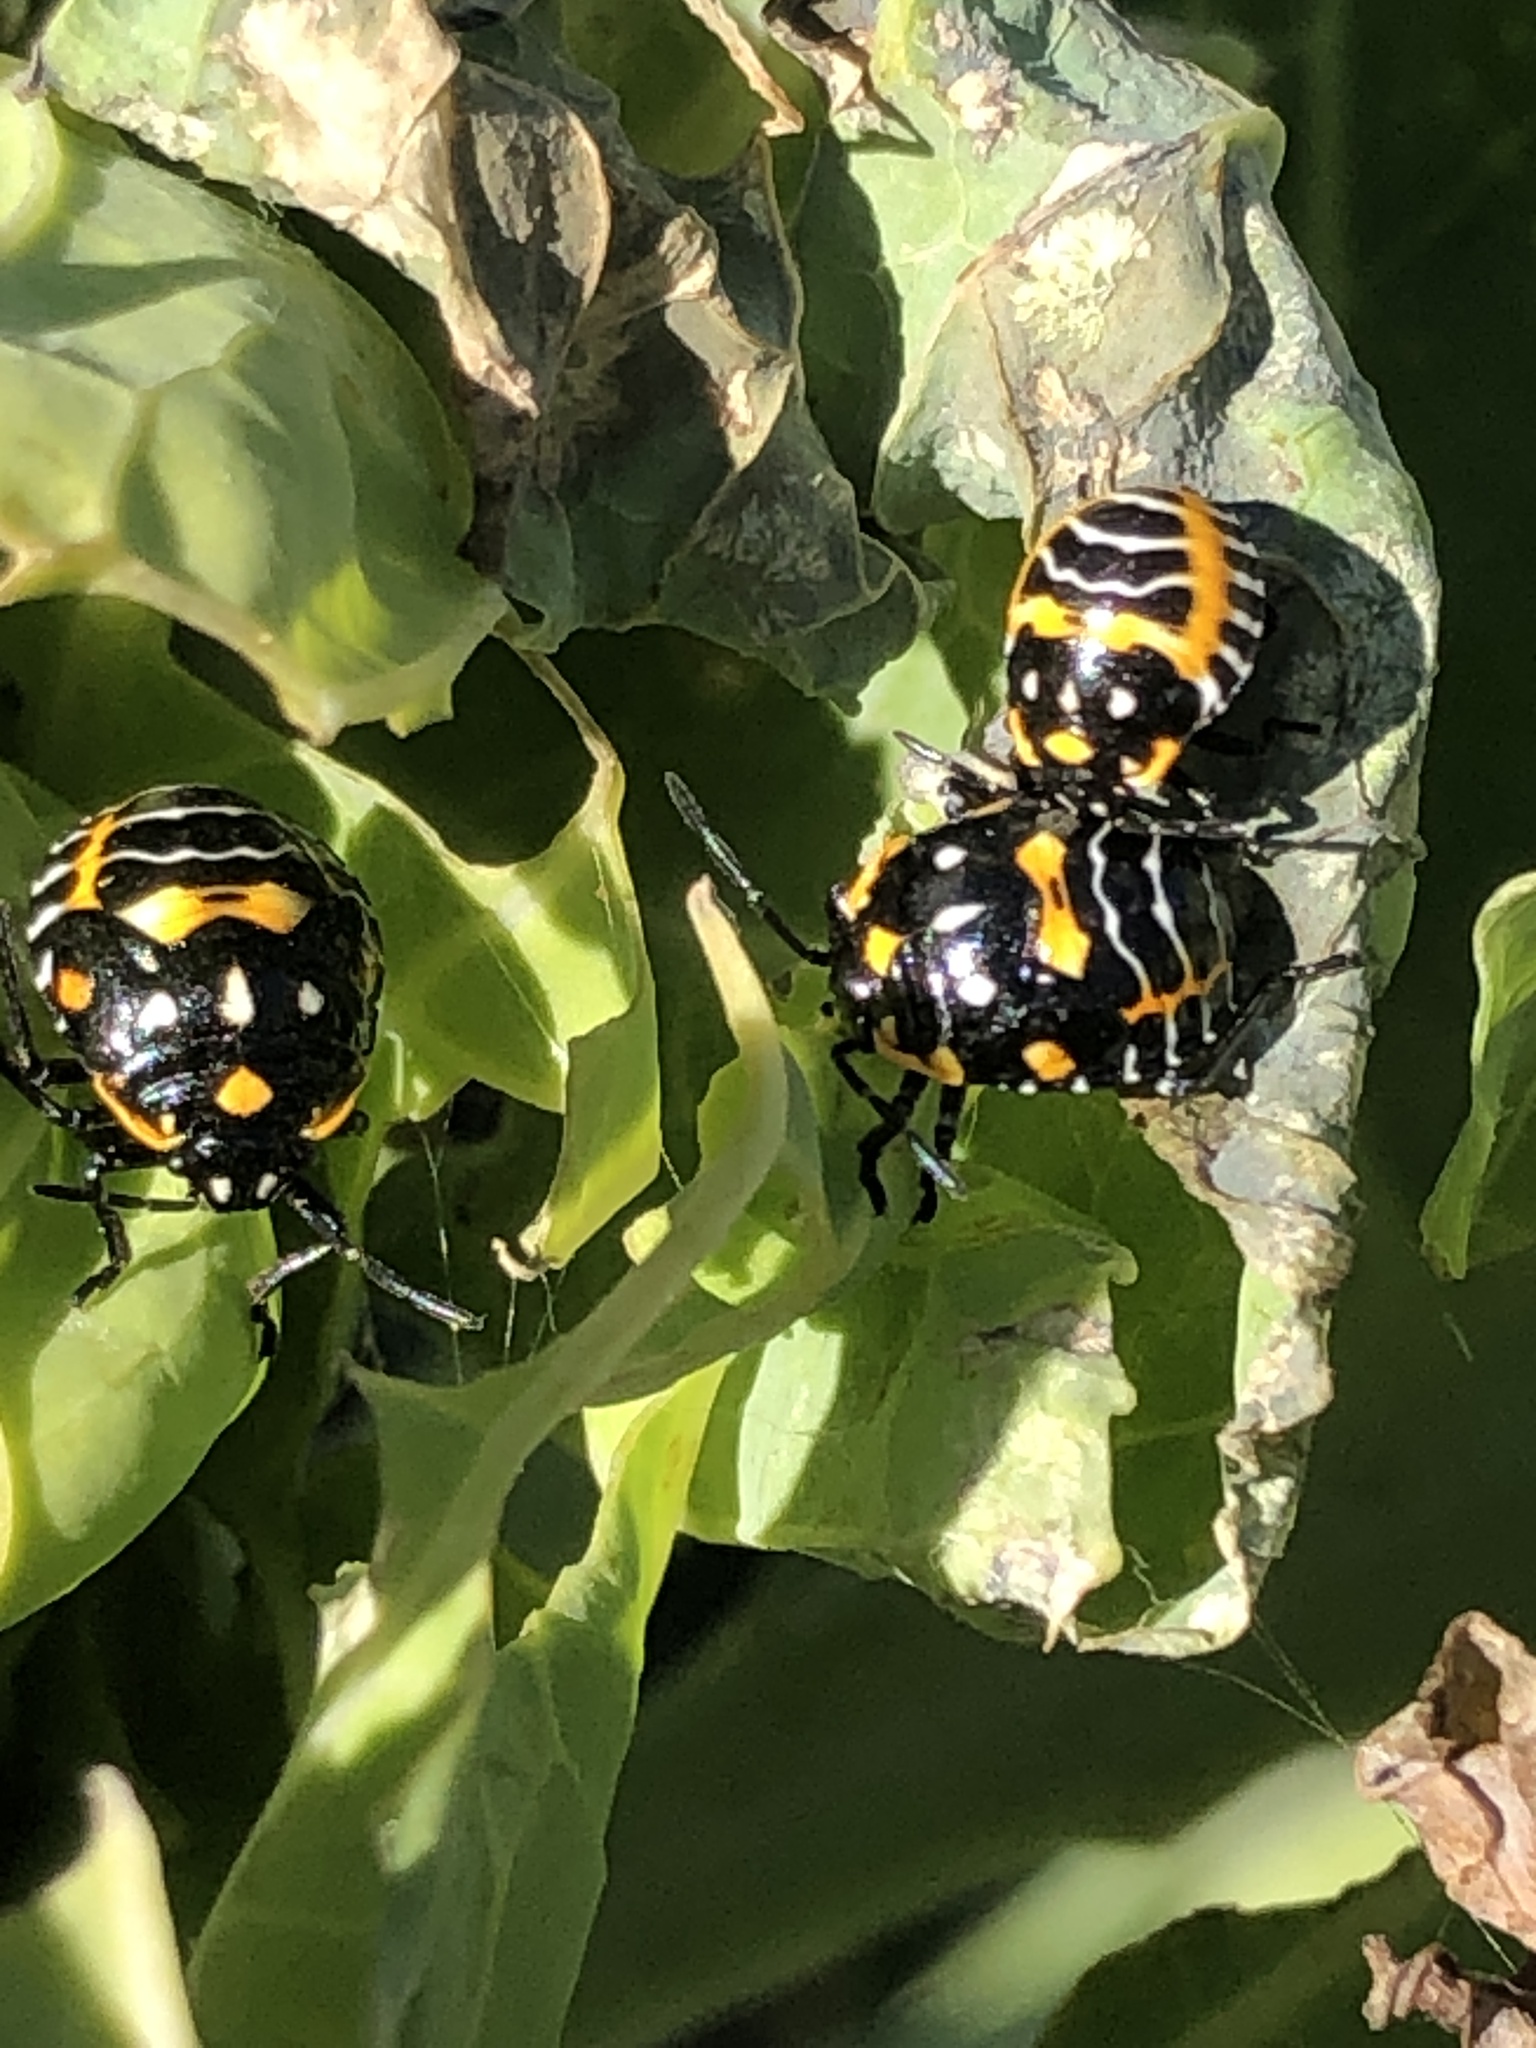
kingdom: Animalia
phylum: Arthropoda
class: Insecta
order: Hemiptera
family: Pentatomidae
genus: Murgantia
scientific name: Murgantia histrionica
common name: Harlequin bug
